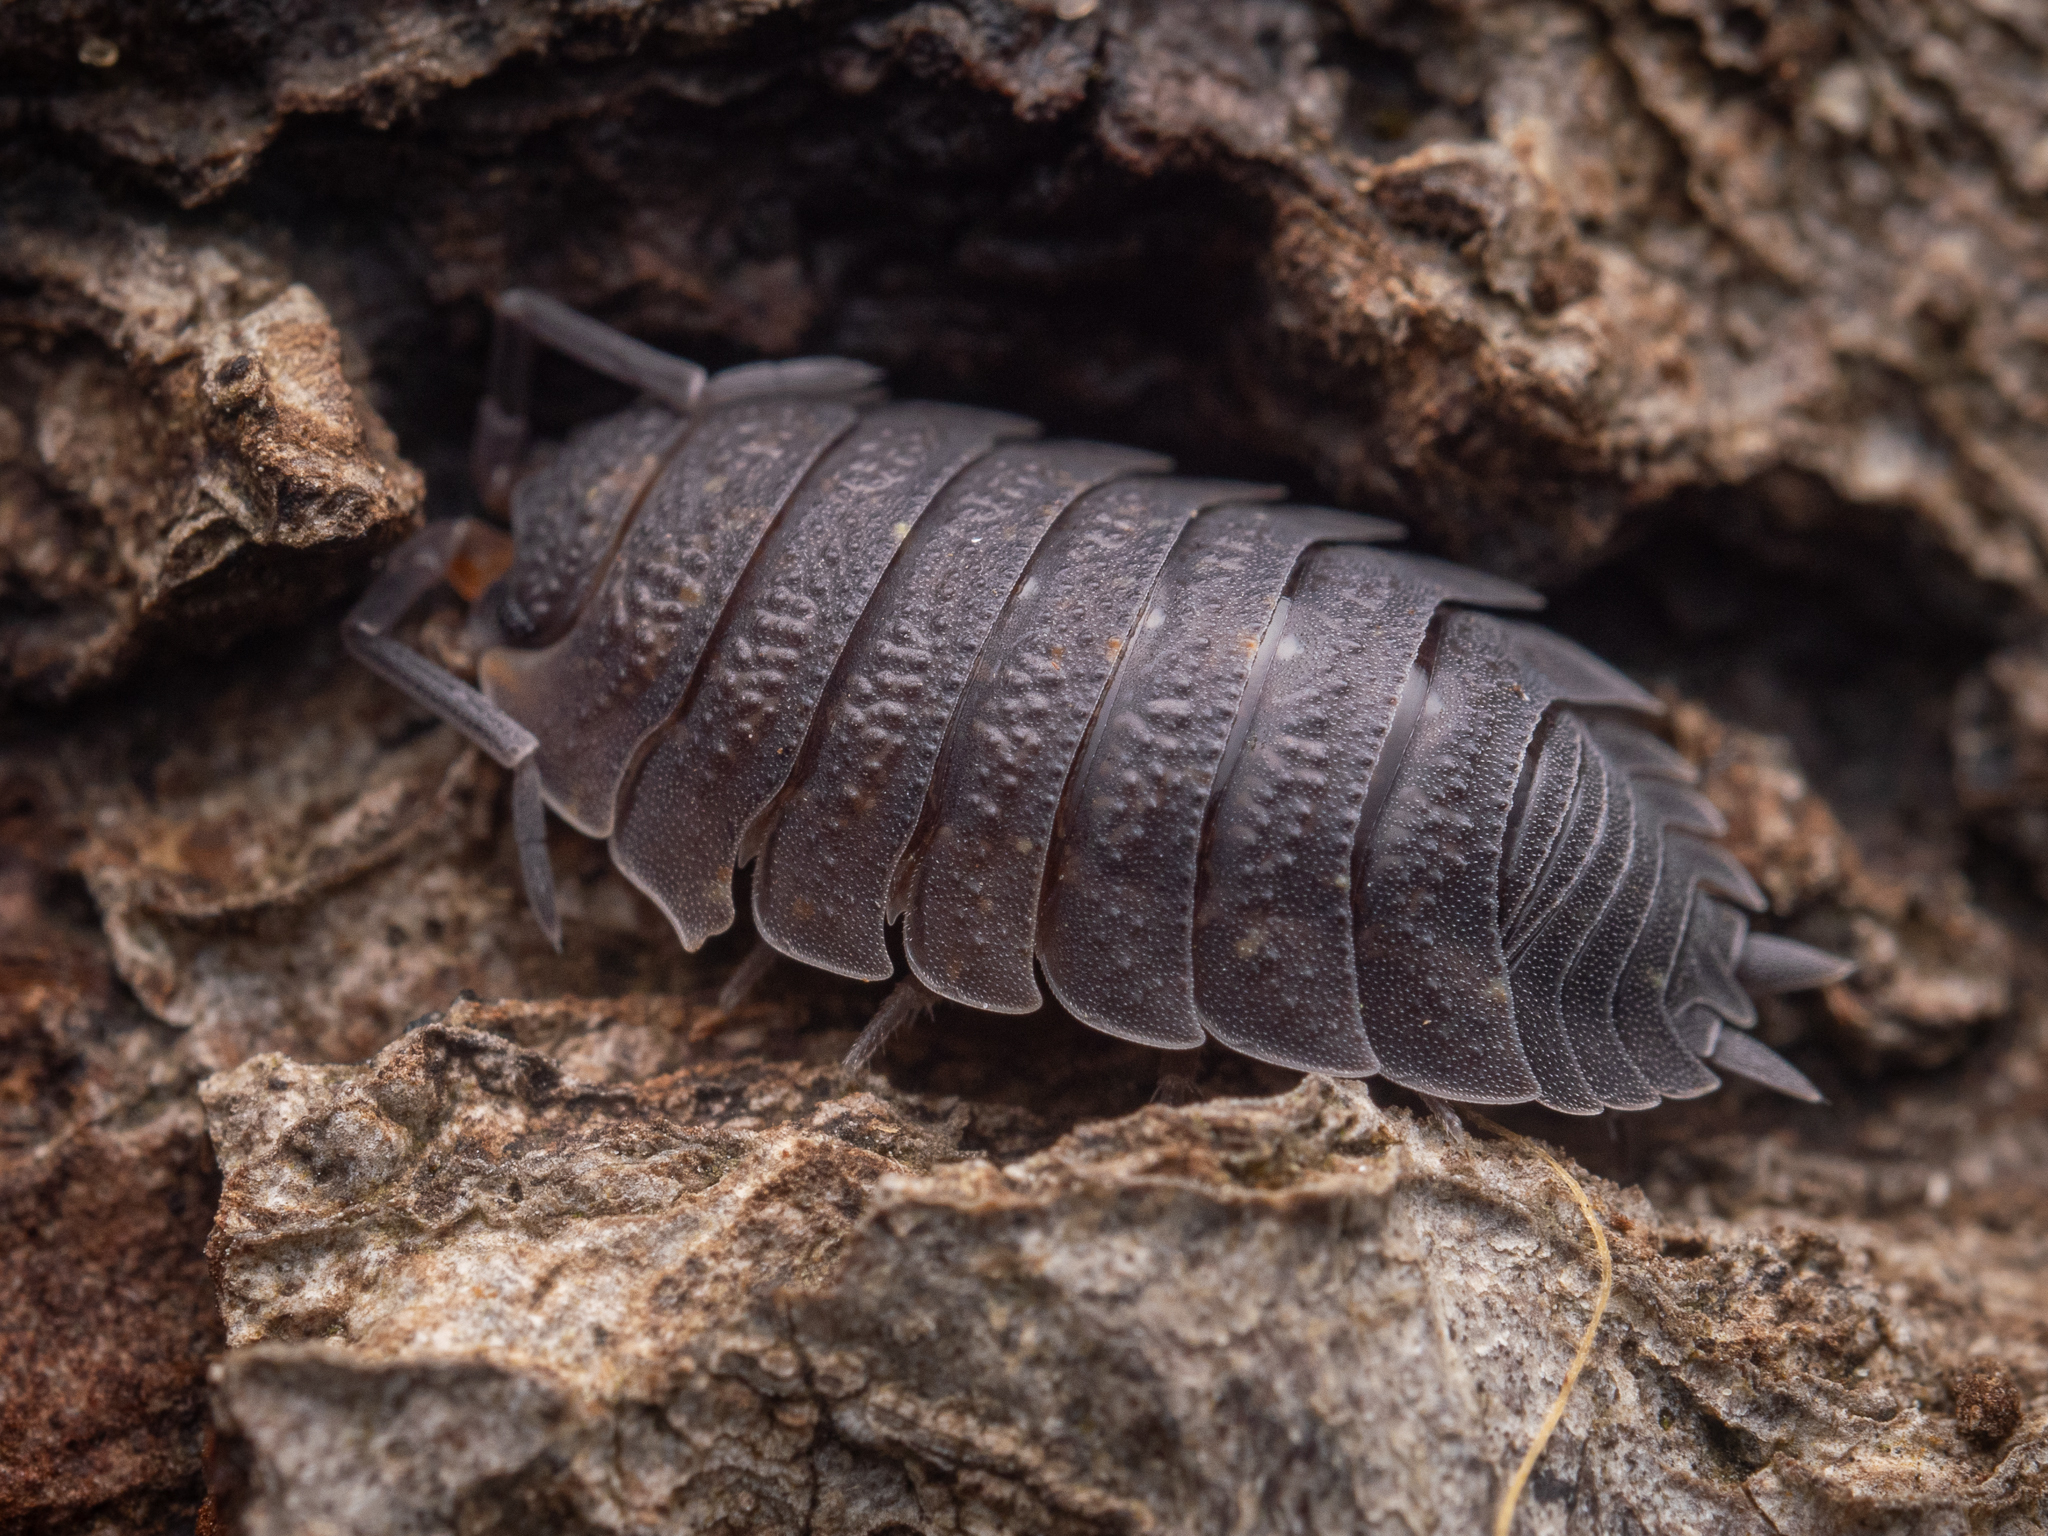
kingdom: Animalia
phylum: Arthropoda
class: Malacostraca
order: Isopoda
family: Porcellionidae
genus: Porcellio
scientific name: Porcellio scaber
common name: Common rough woodlouse
